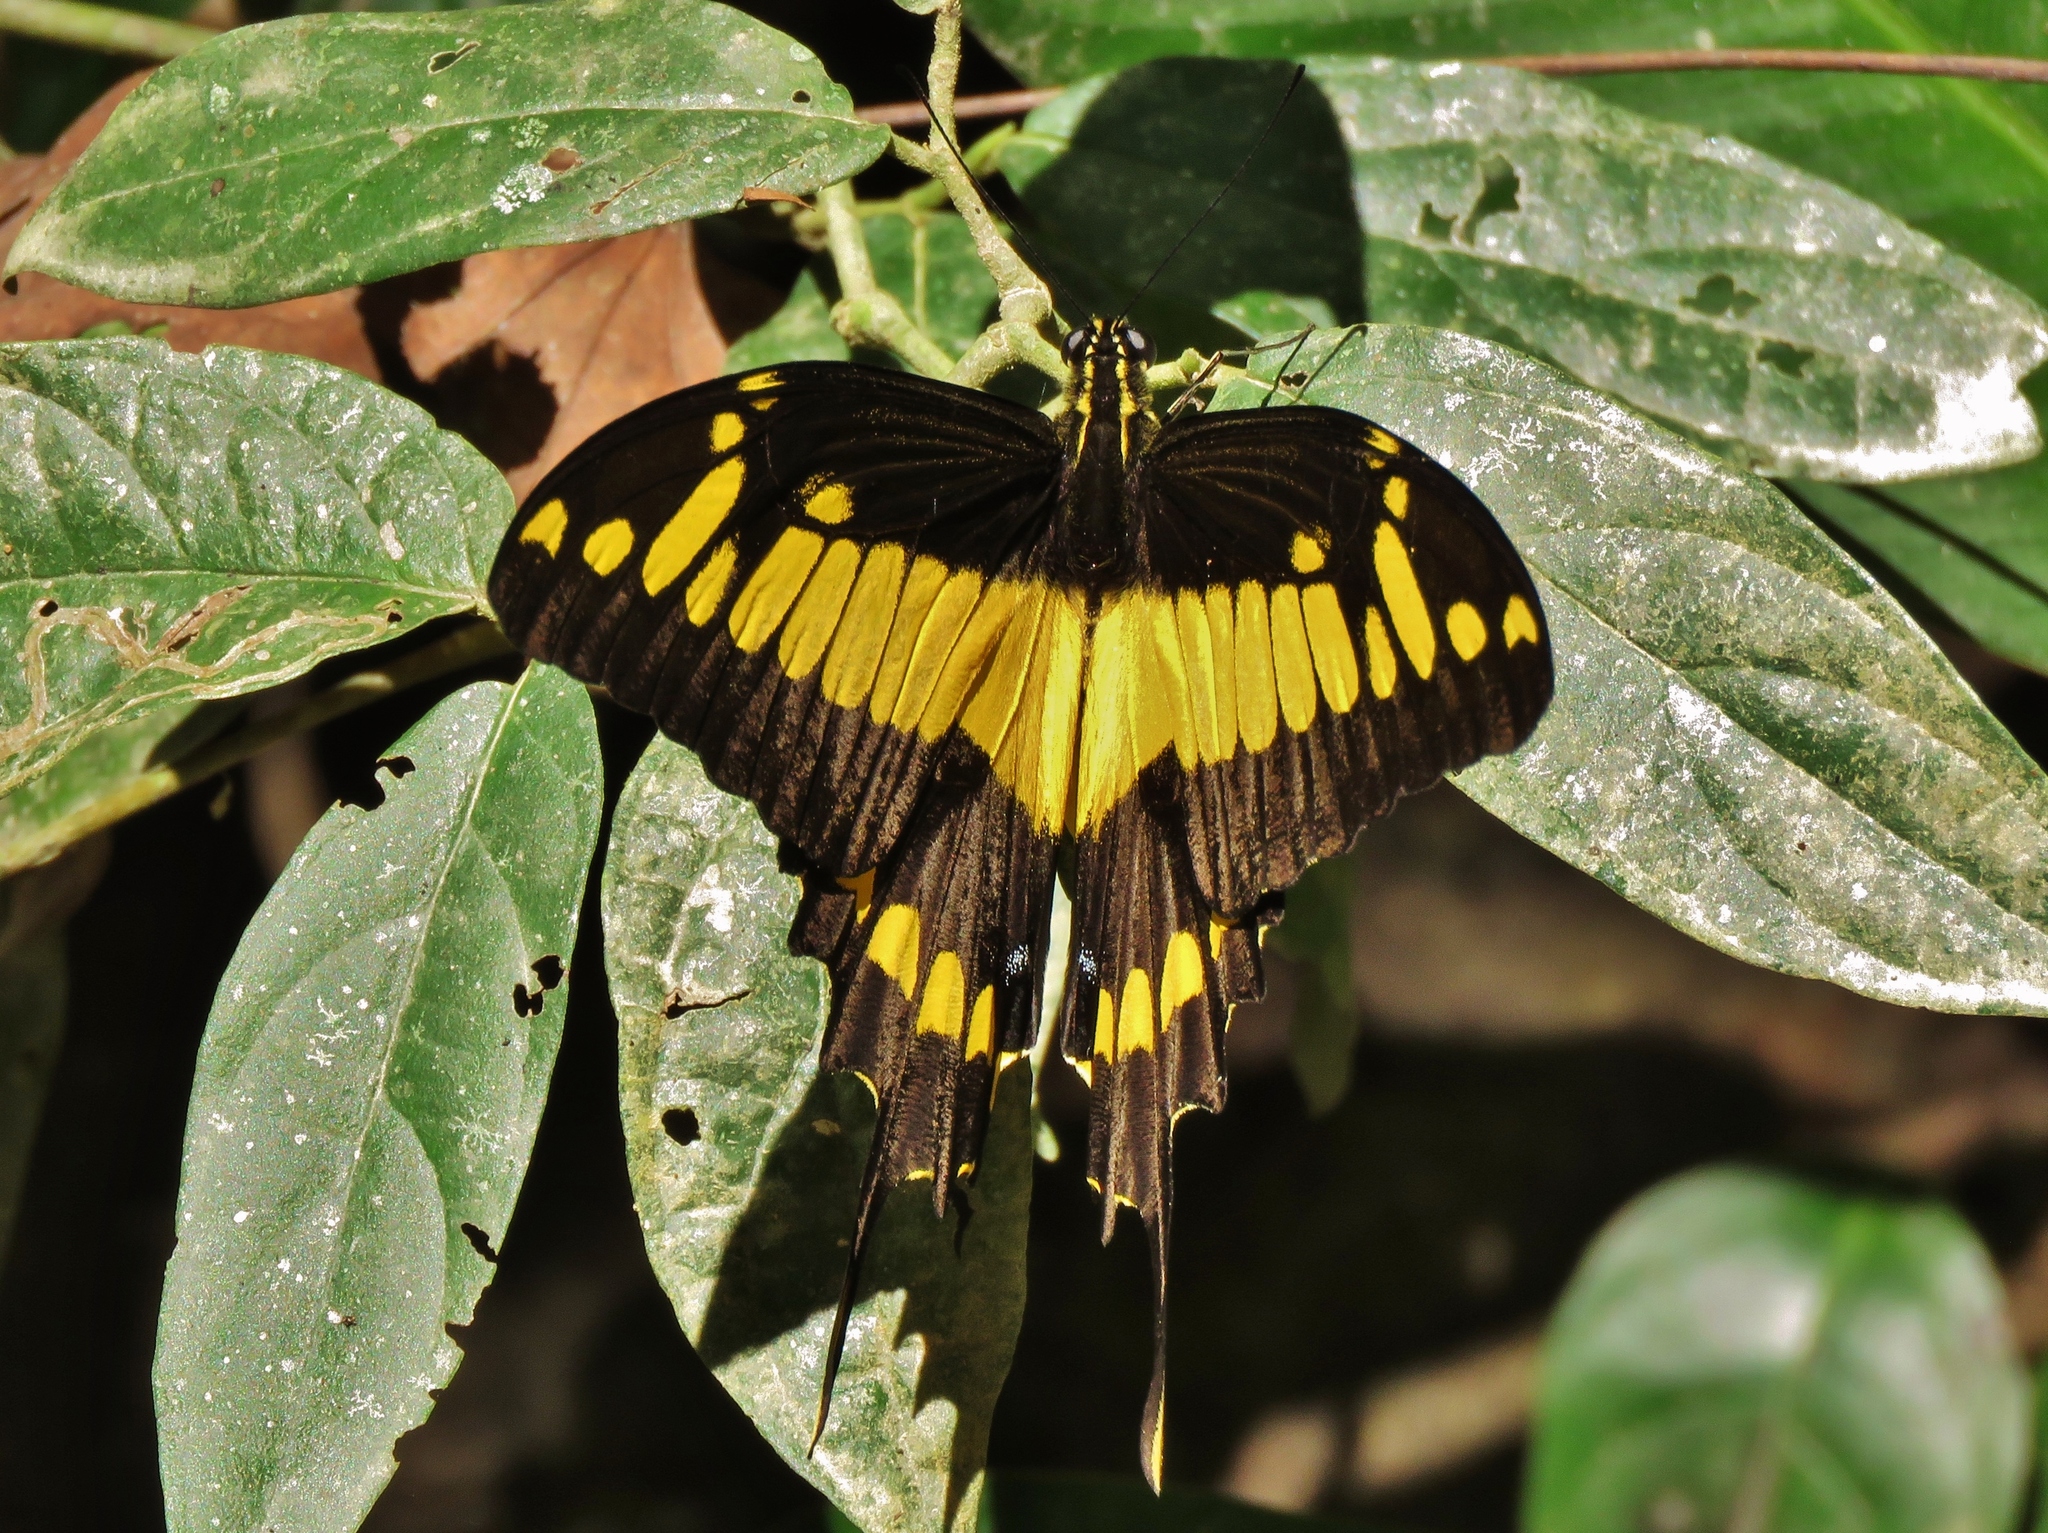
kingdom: Animalia
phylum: Arthropoda
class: Insecta
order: Lepidoptera
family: Papilionidae
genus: Papilio
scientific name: Papilio thoas
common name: King swallowtail
